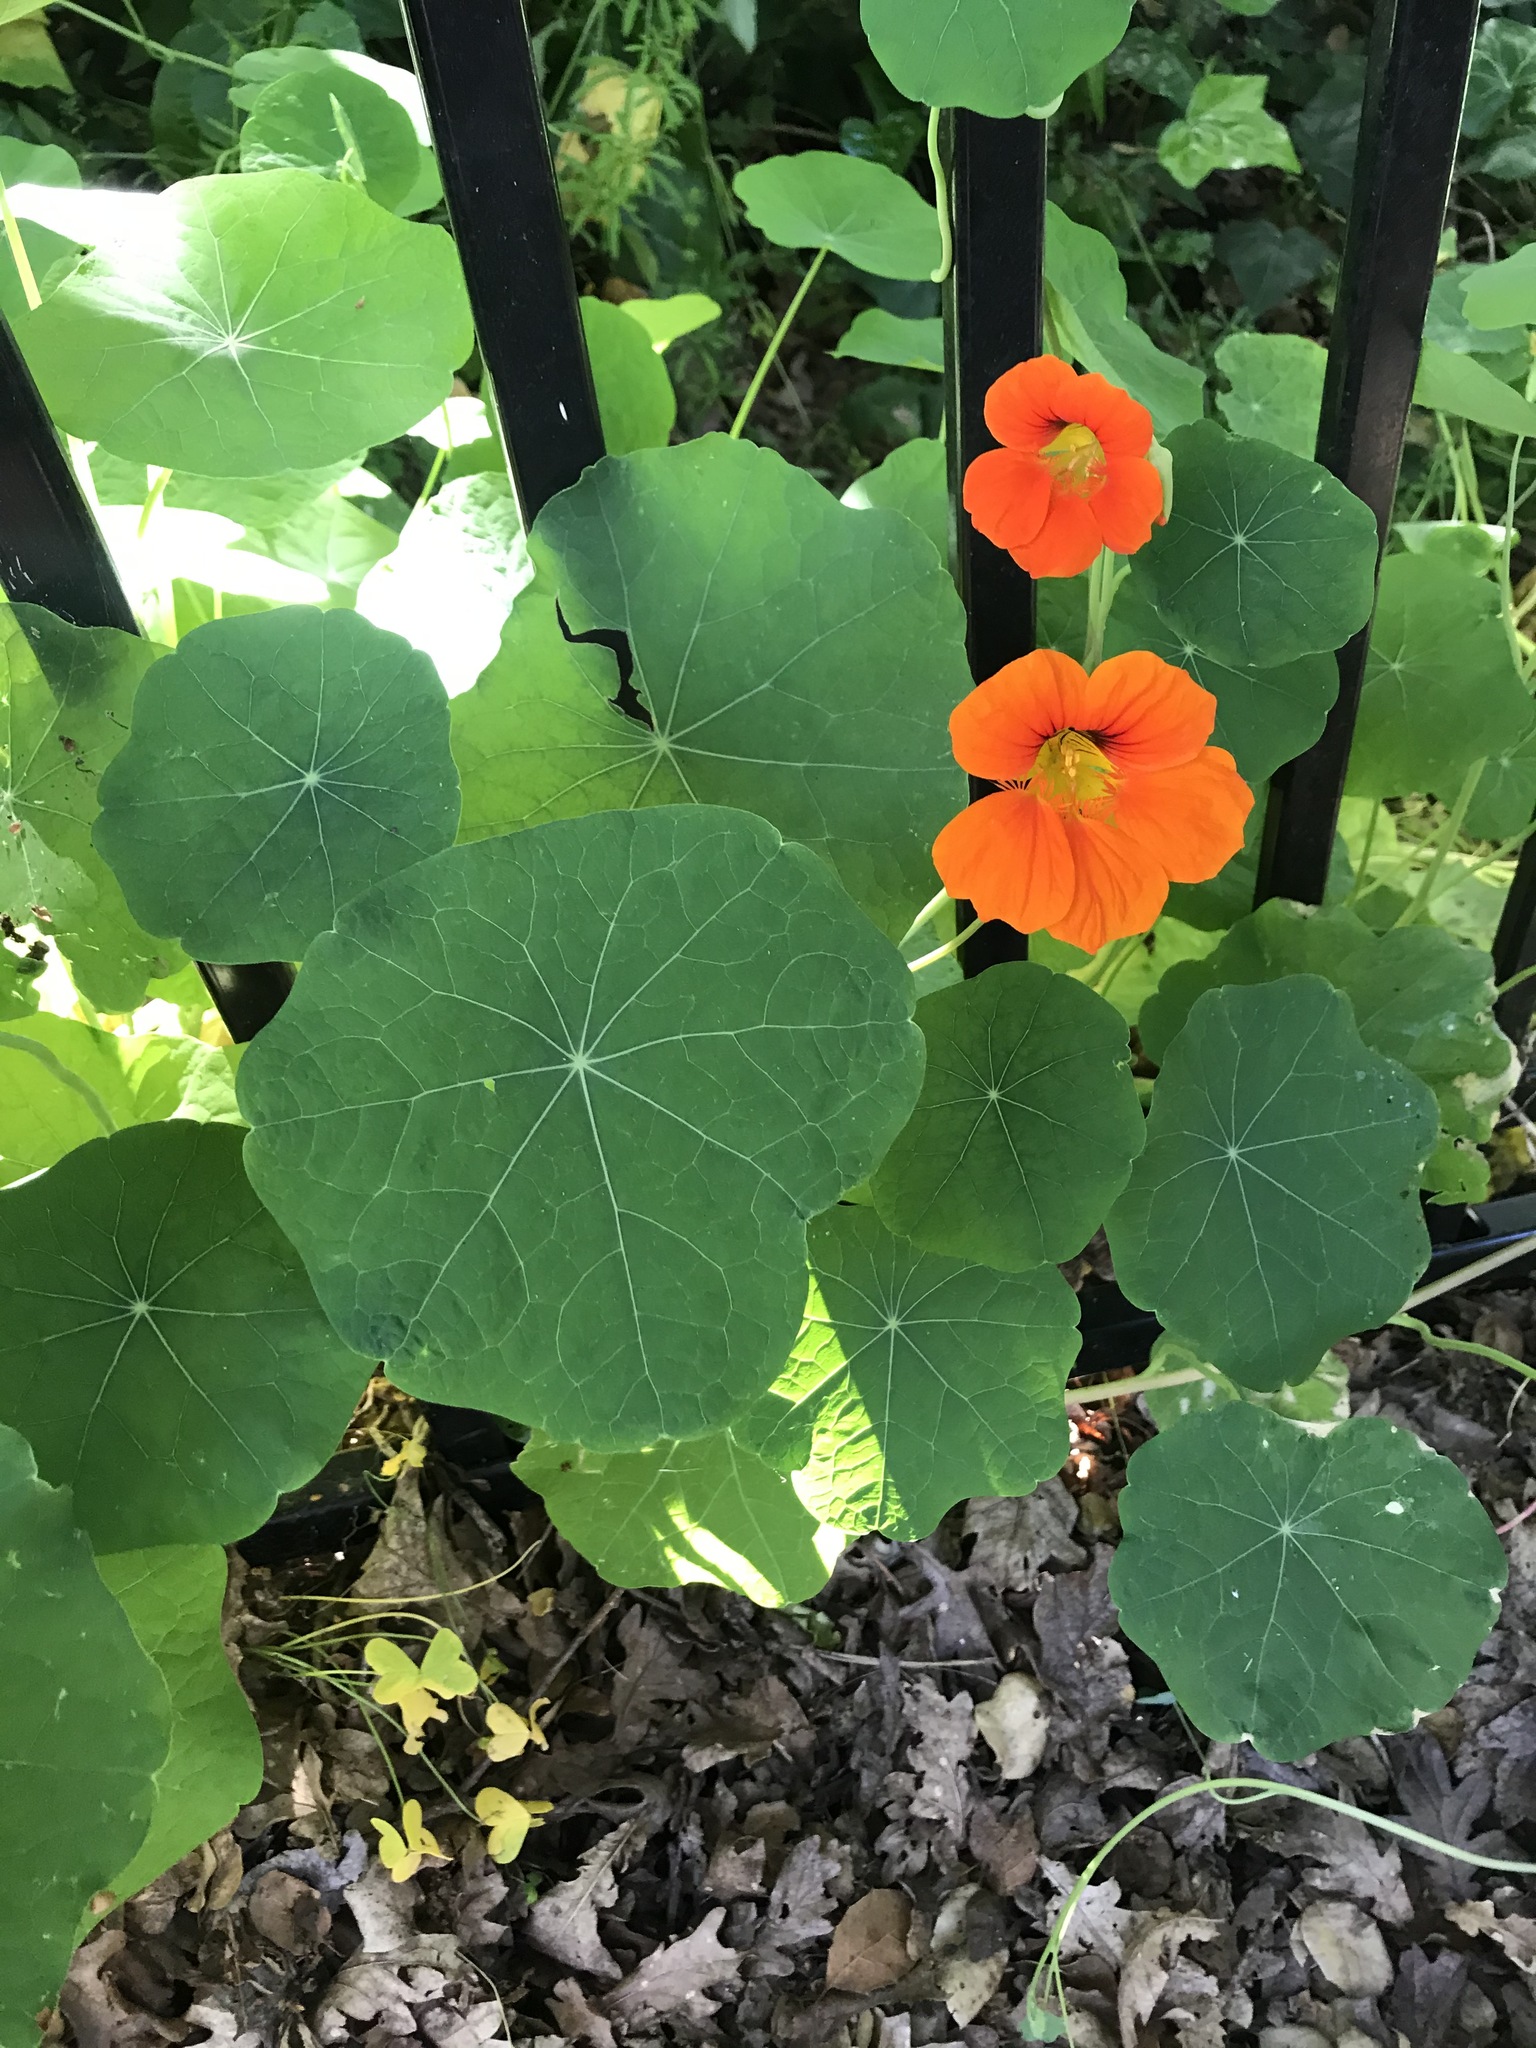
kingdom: Plantae
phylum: Tracheophyta
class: Magnoliopsida
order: Brassicales
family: Tropaeolaceae
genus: Tropaeolum
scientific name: Tropaeolum majus
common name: Nasturtium
